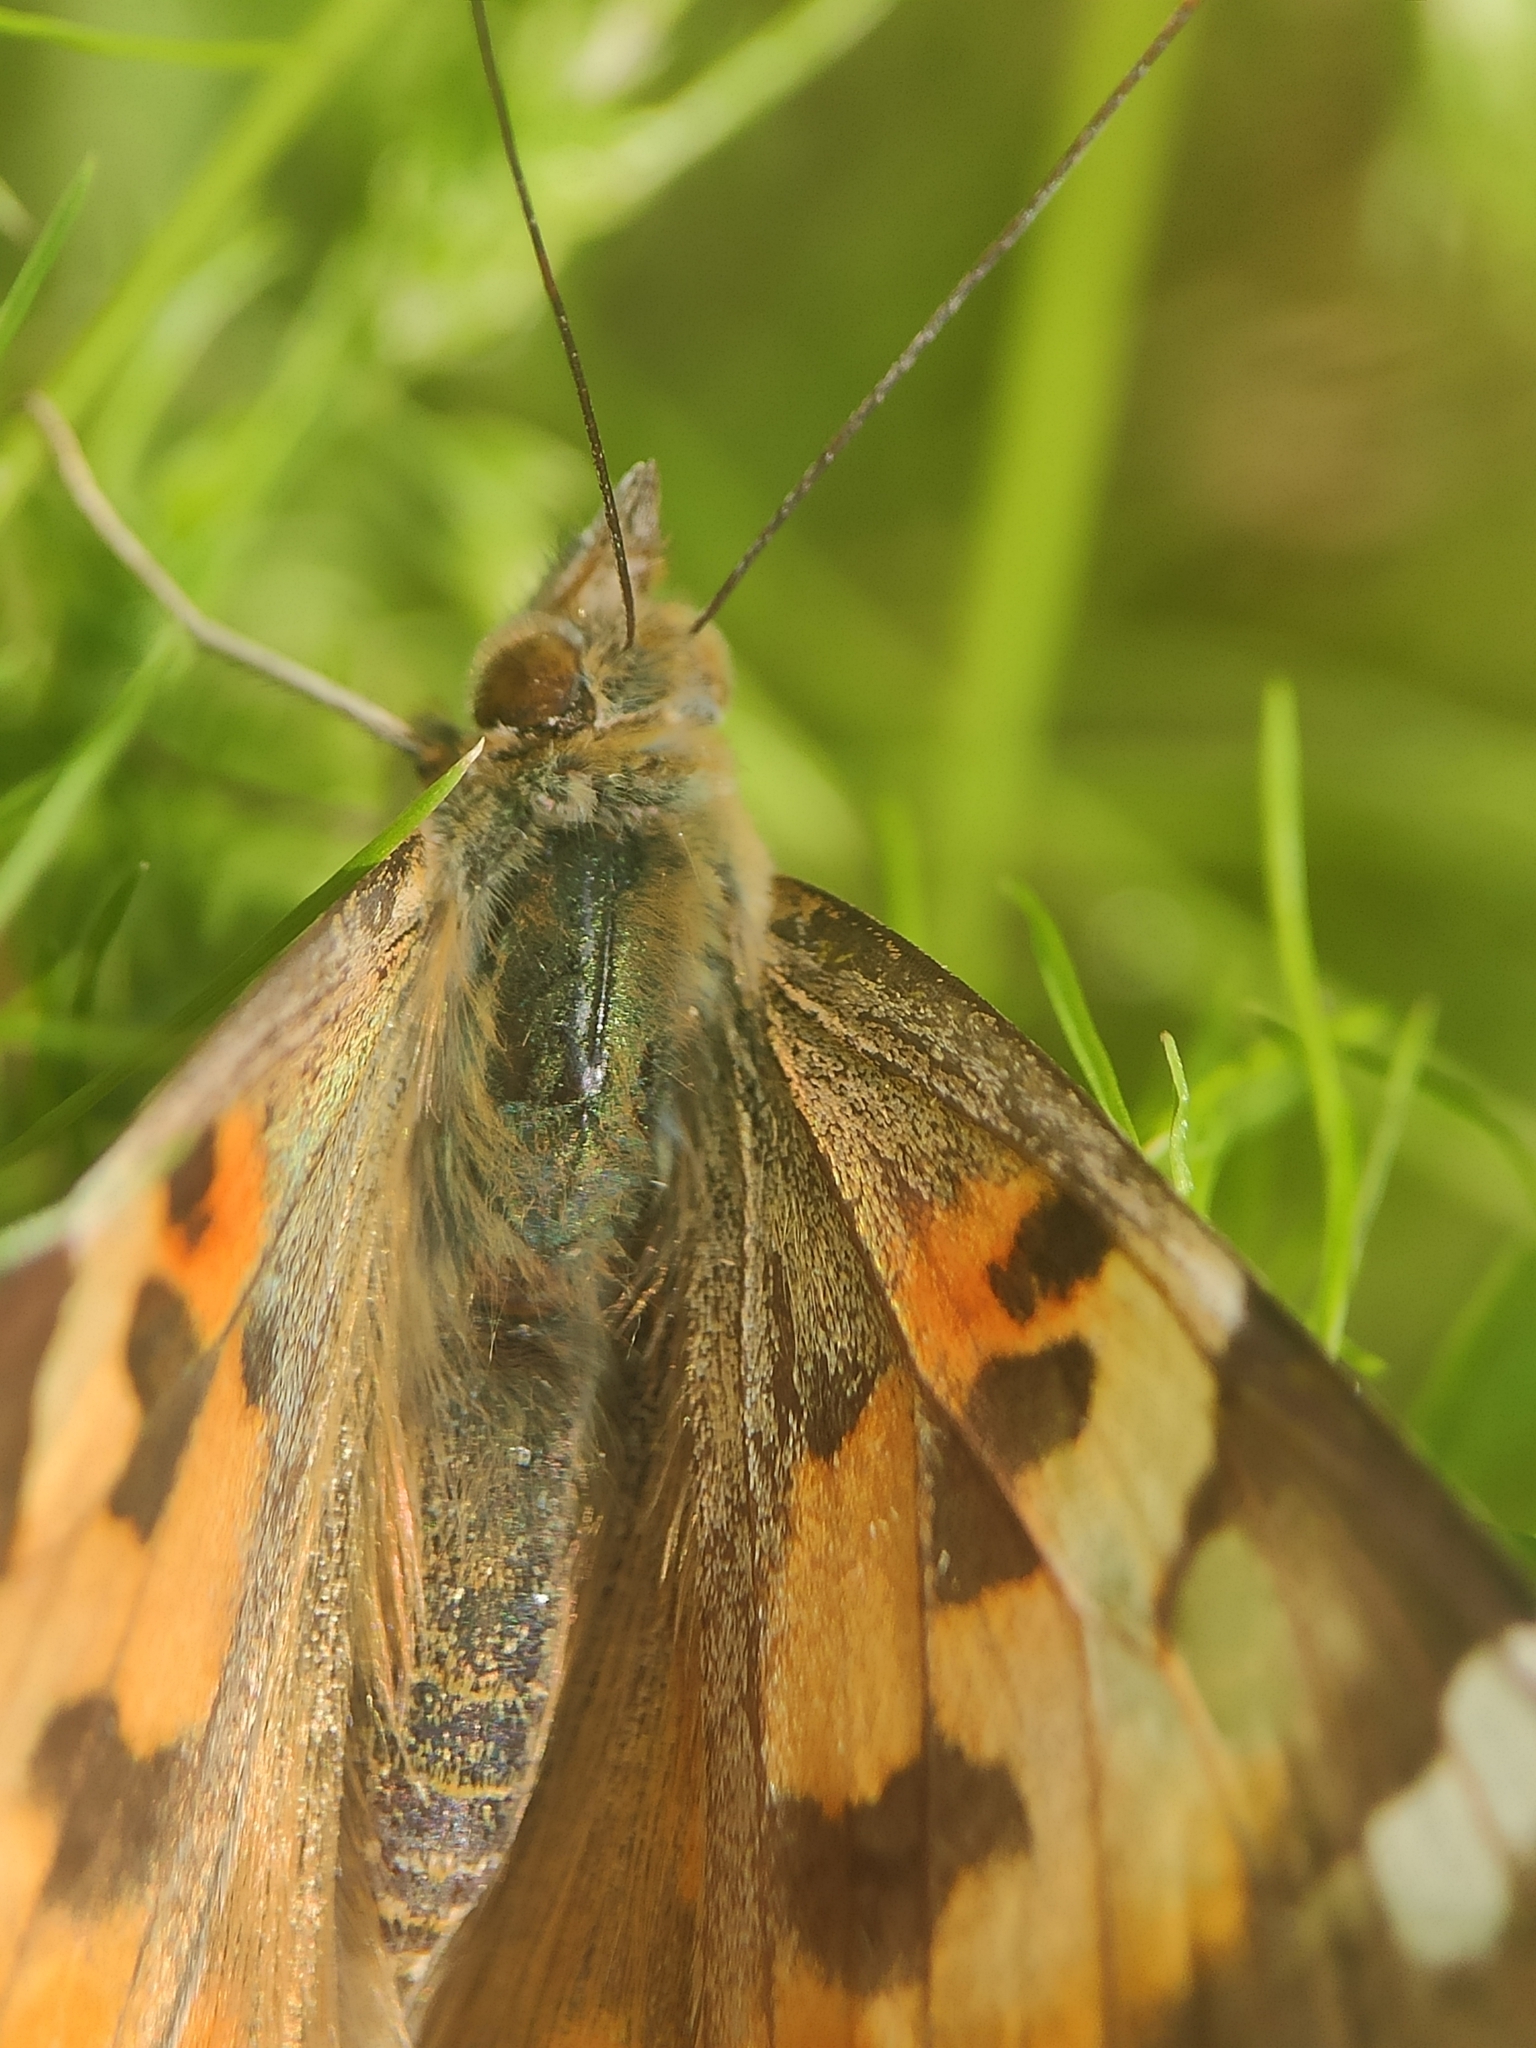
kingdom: Animalia
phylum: Arthropoda
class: Insecta
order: Lepidoptera
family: Nymphalidae
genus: Vanessa
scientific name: Vanessa cardui
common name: Painted lady
